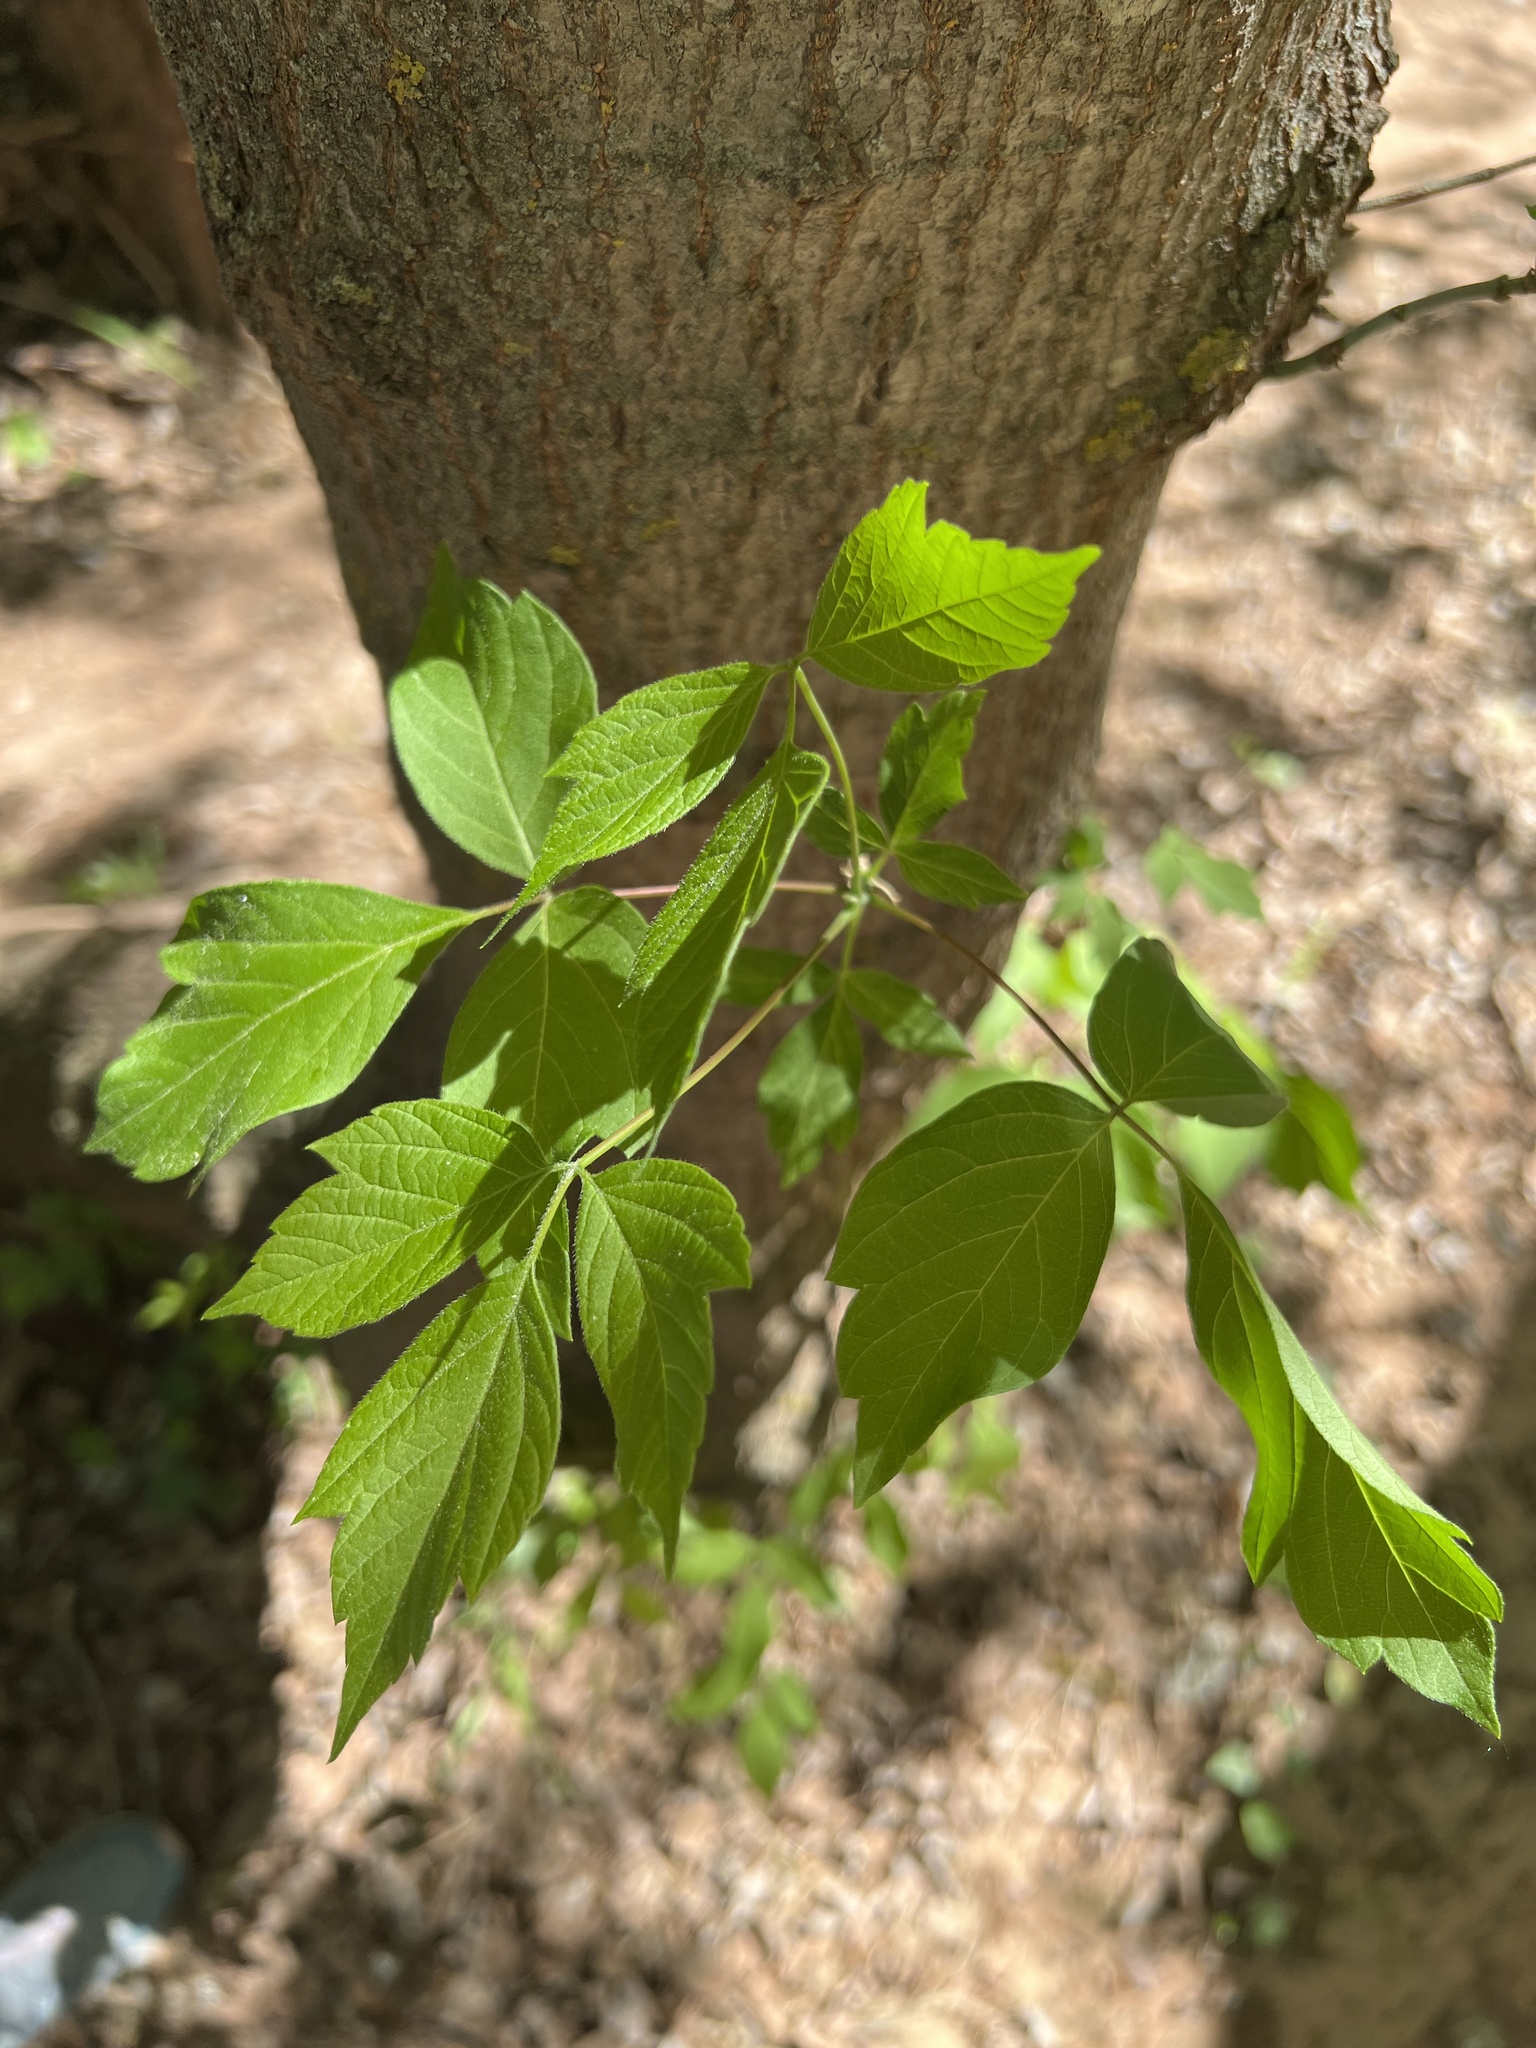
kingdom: Plantae
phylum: Tracheophyta
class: Magnoliopsida
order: Sapindales
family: Sapindaceae
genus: Acer
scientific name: Acer negundo
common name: Ashleaf maple
